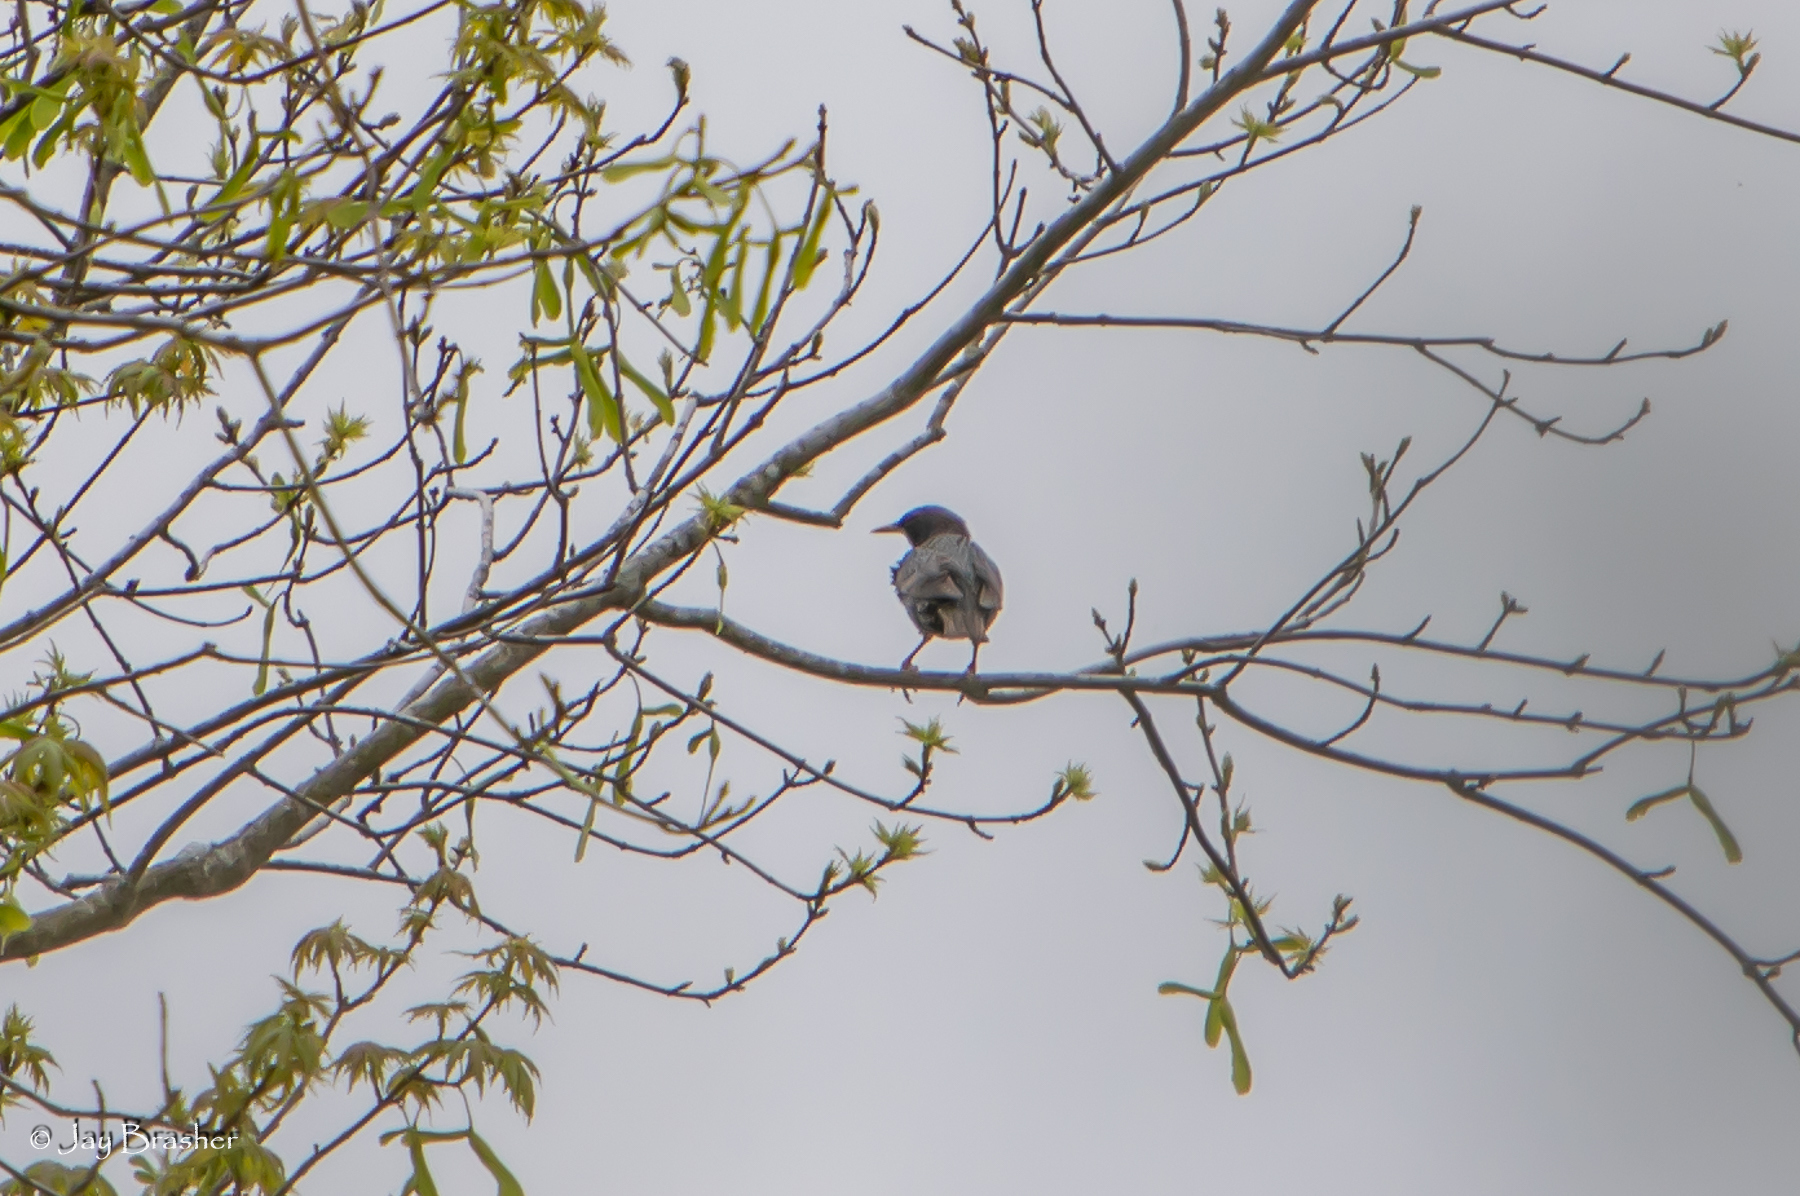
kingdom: Animalia
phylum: Chordata
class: Aves
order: Passeriformes
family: Sturnidae
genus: Sturnus
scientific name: Sturnus vulgaris
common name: Common starling
